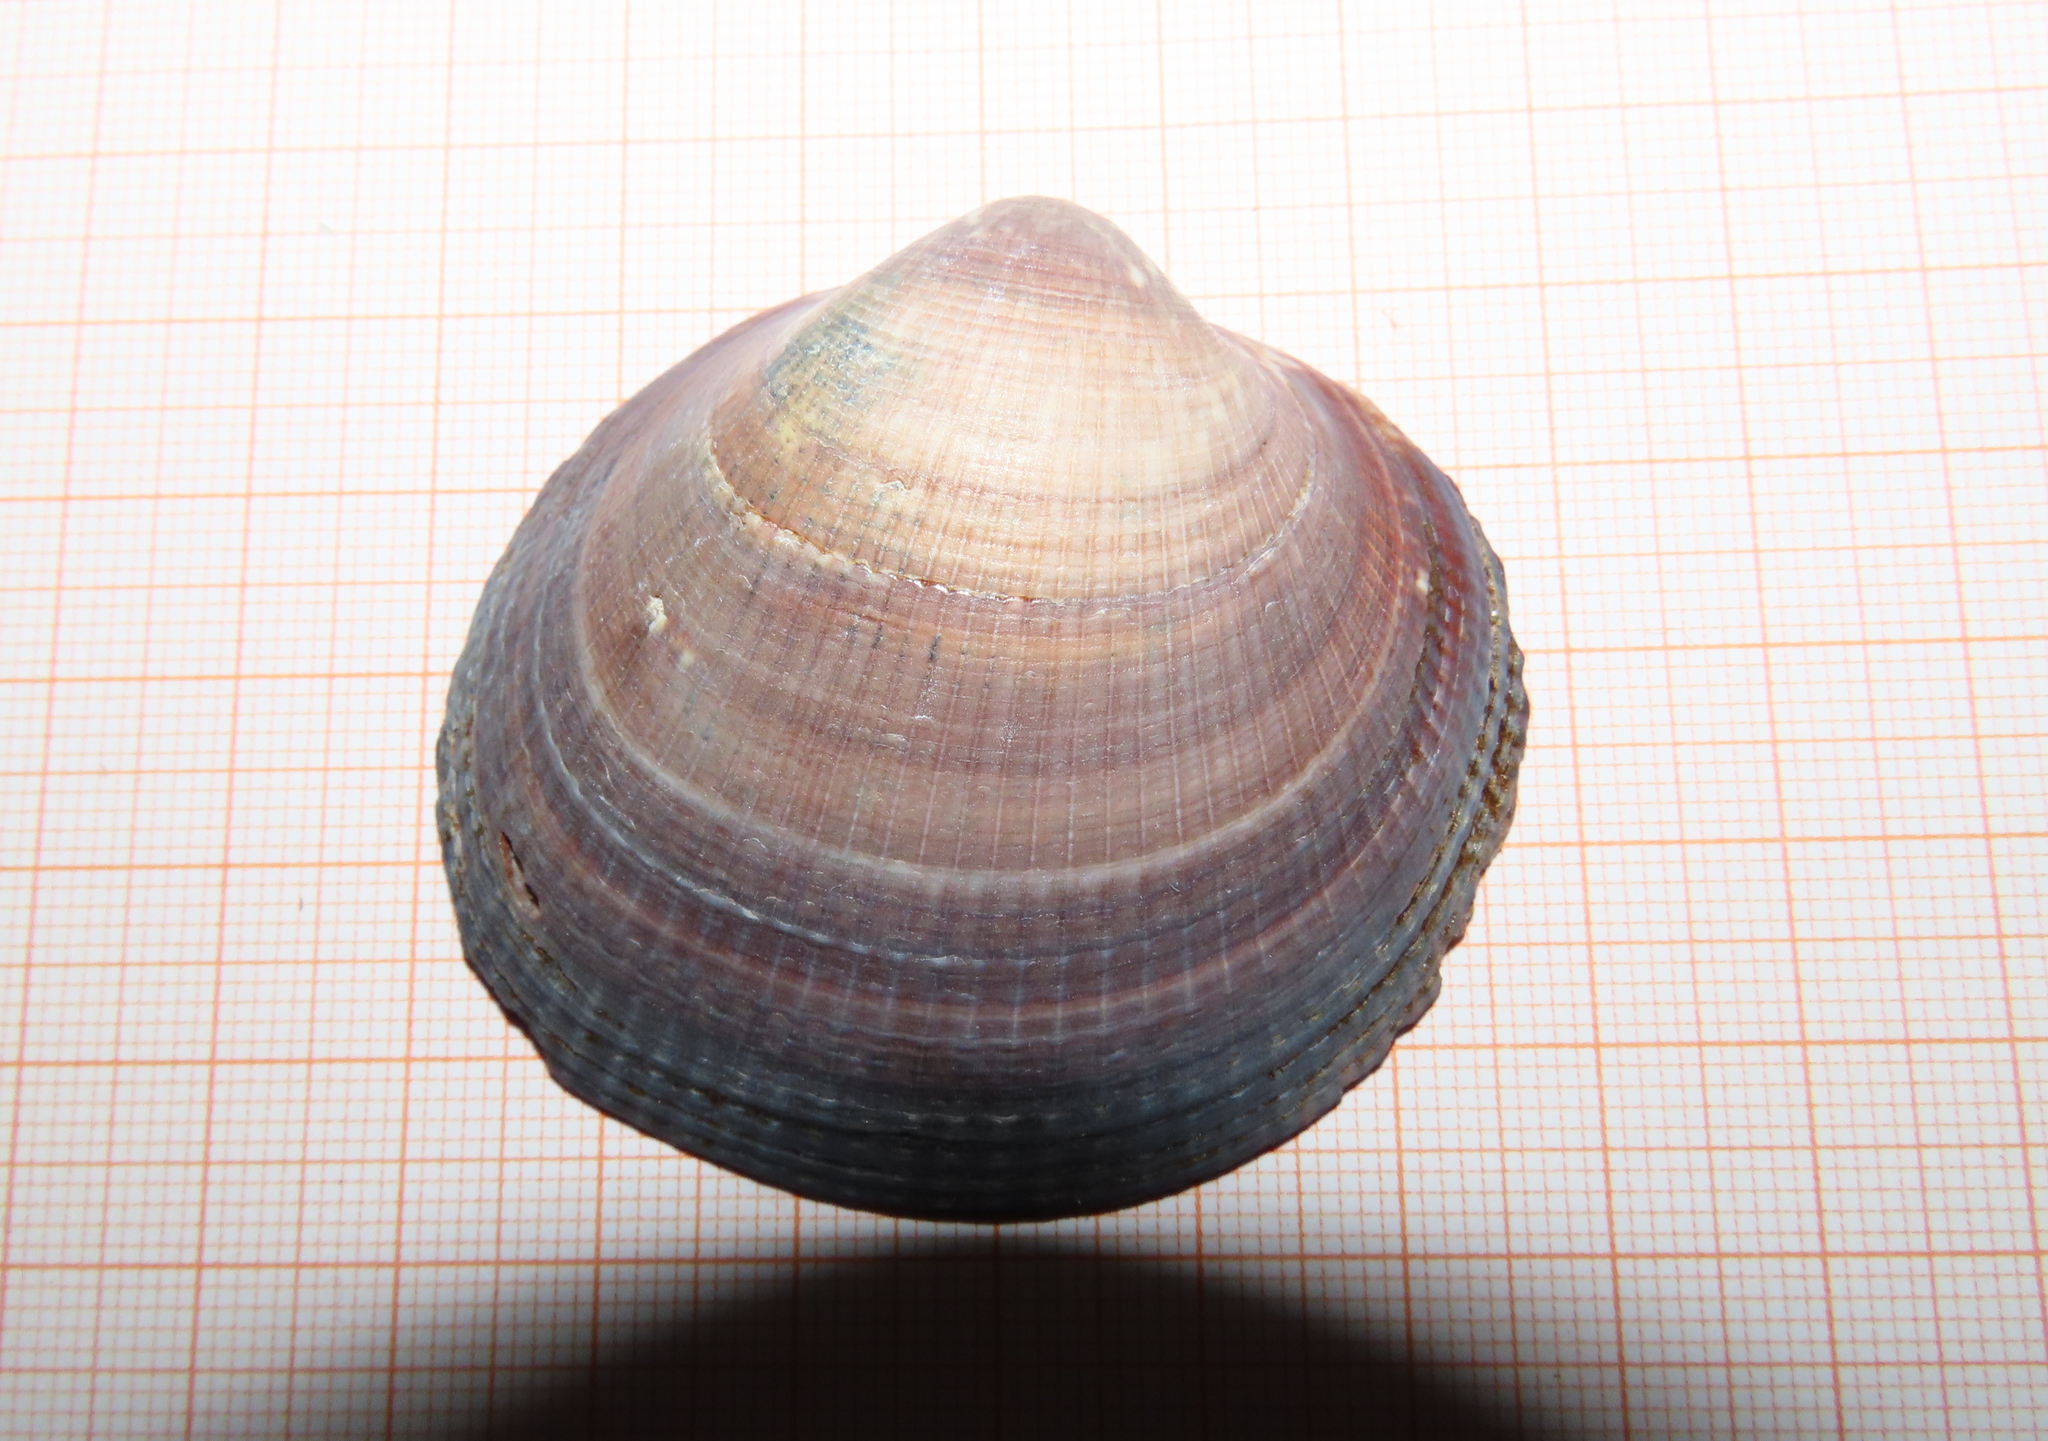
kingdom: Animalia
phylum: Mollusca
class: Bivalvia
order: Arcida
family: Glycymerididae
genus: Glycymeris
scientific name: Glycymeris nummaria
